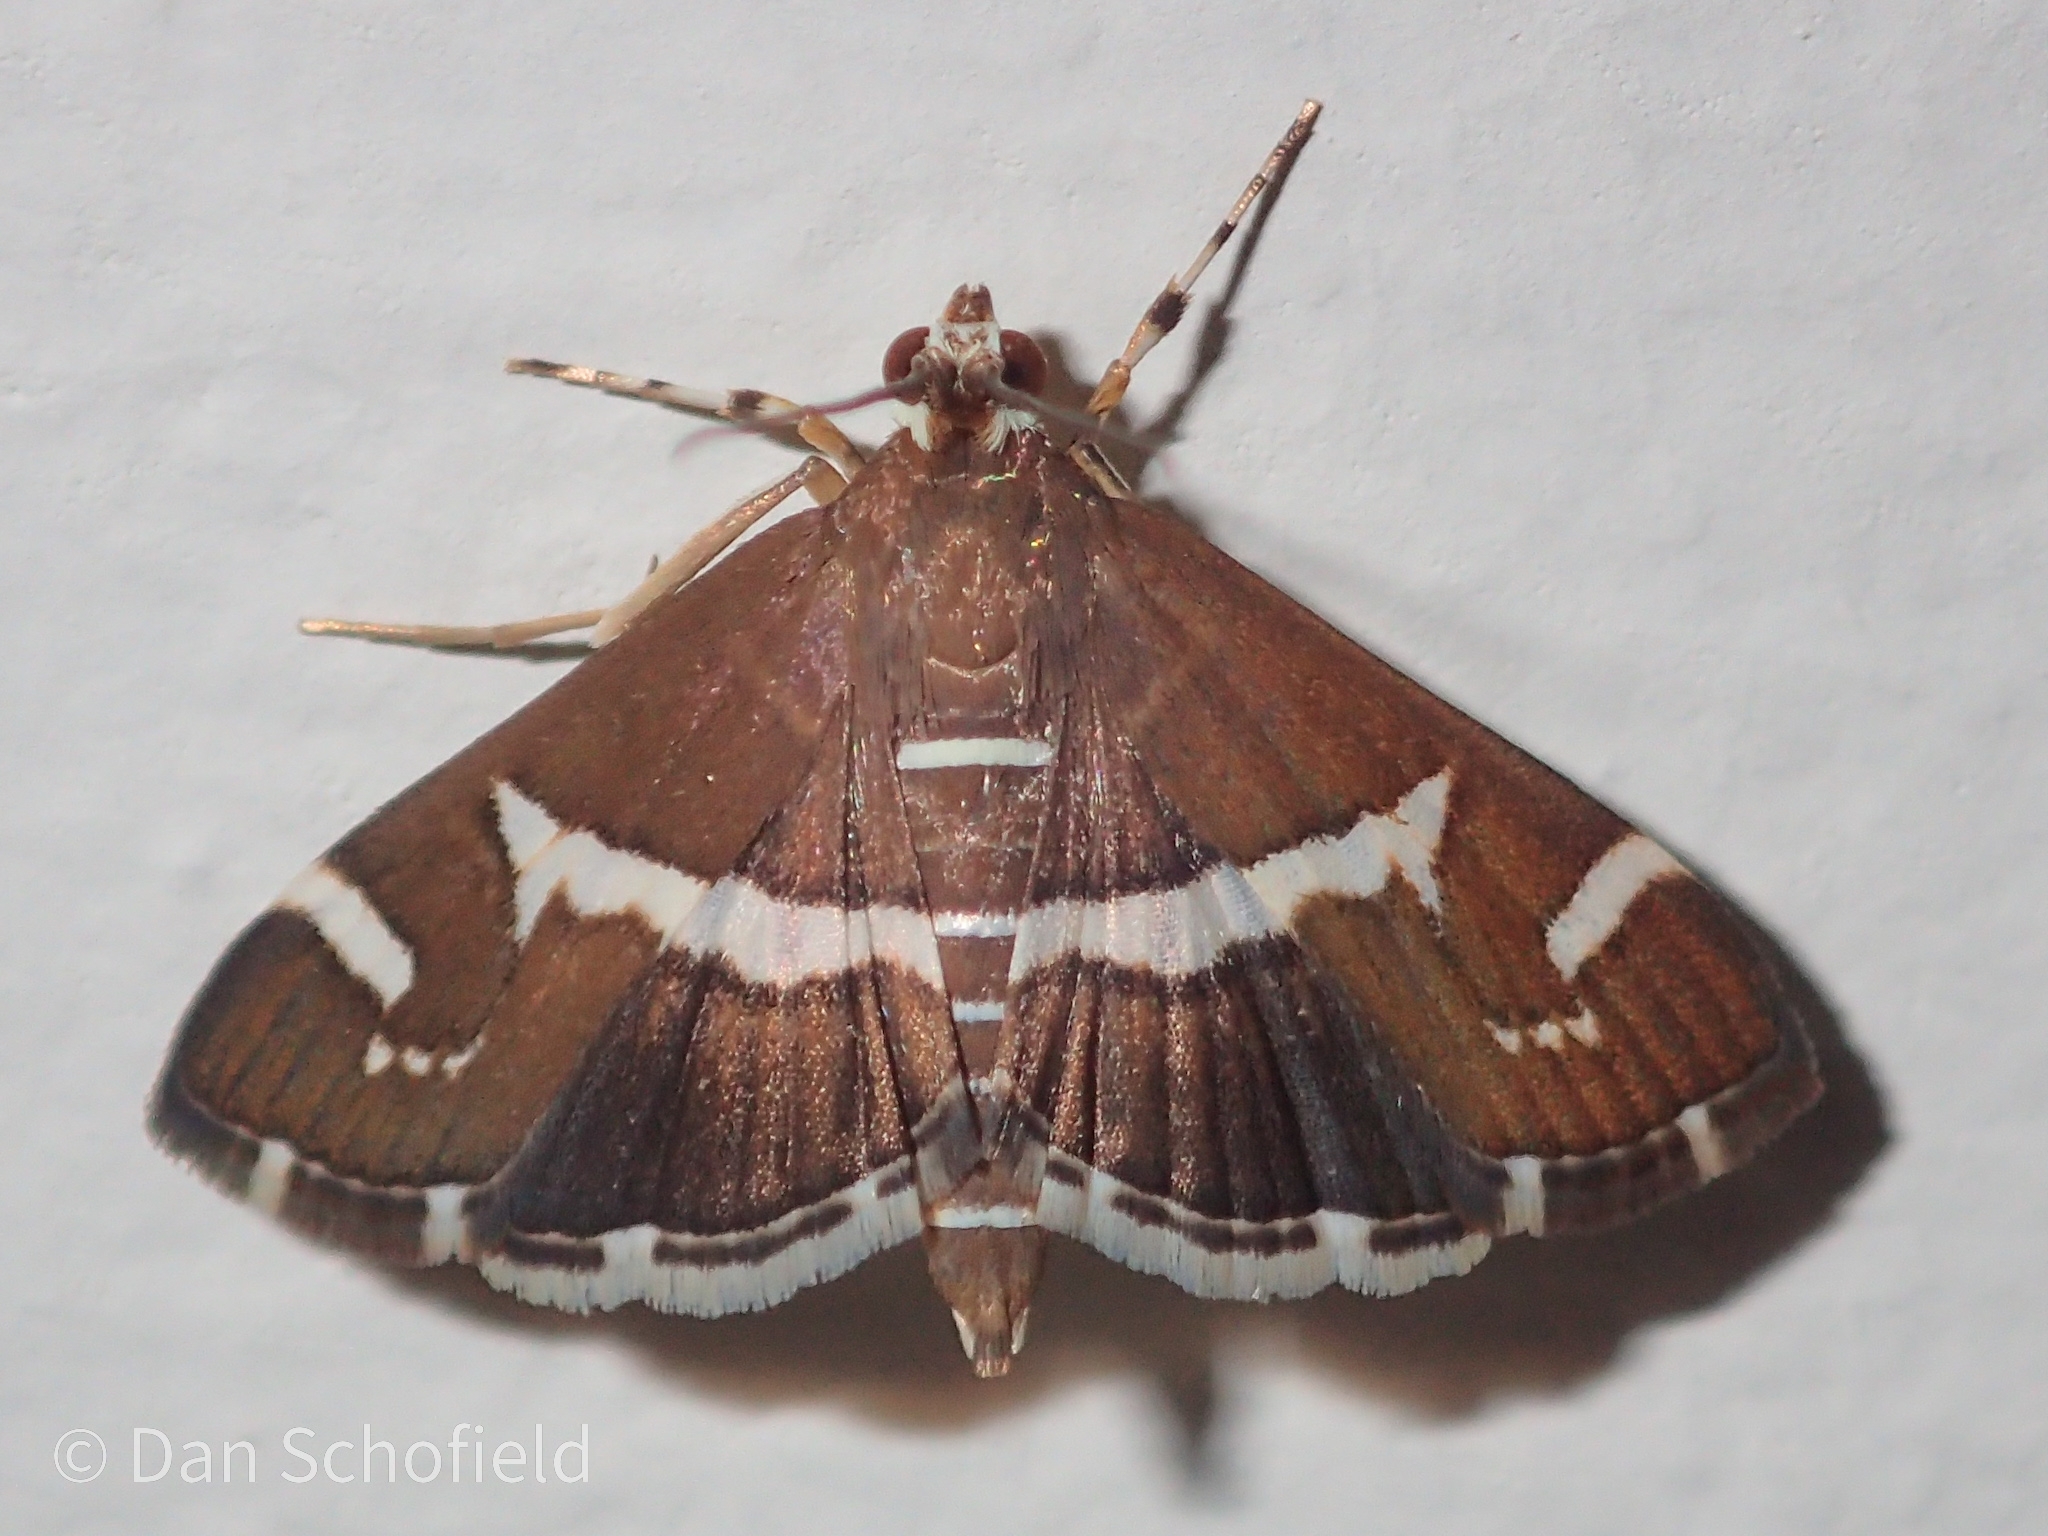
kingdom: Animalia
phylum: Arthropoda
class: Insecta
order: Lepidoptera
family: Crambidae
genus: Spoladea
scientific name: Spoladea recurvalis
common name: Beet webworm moth
